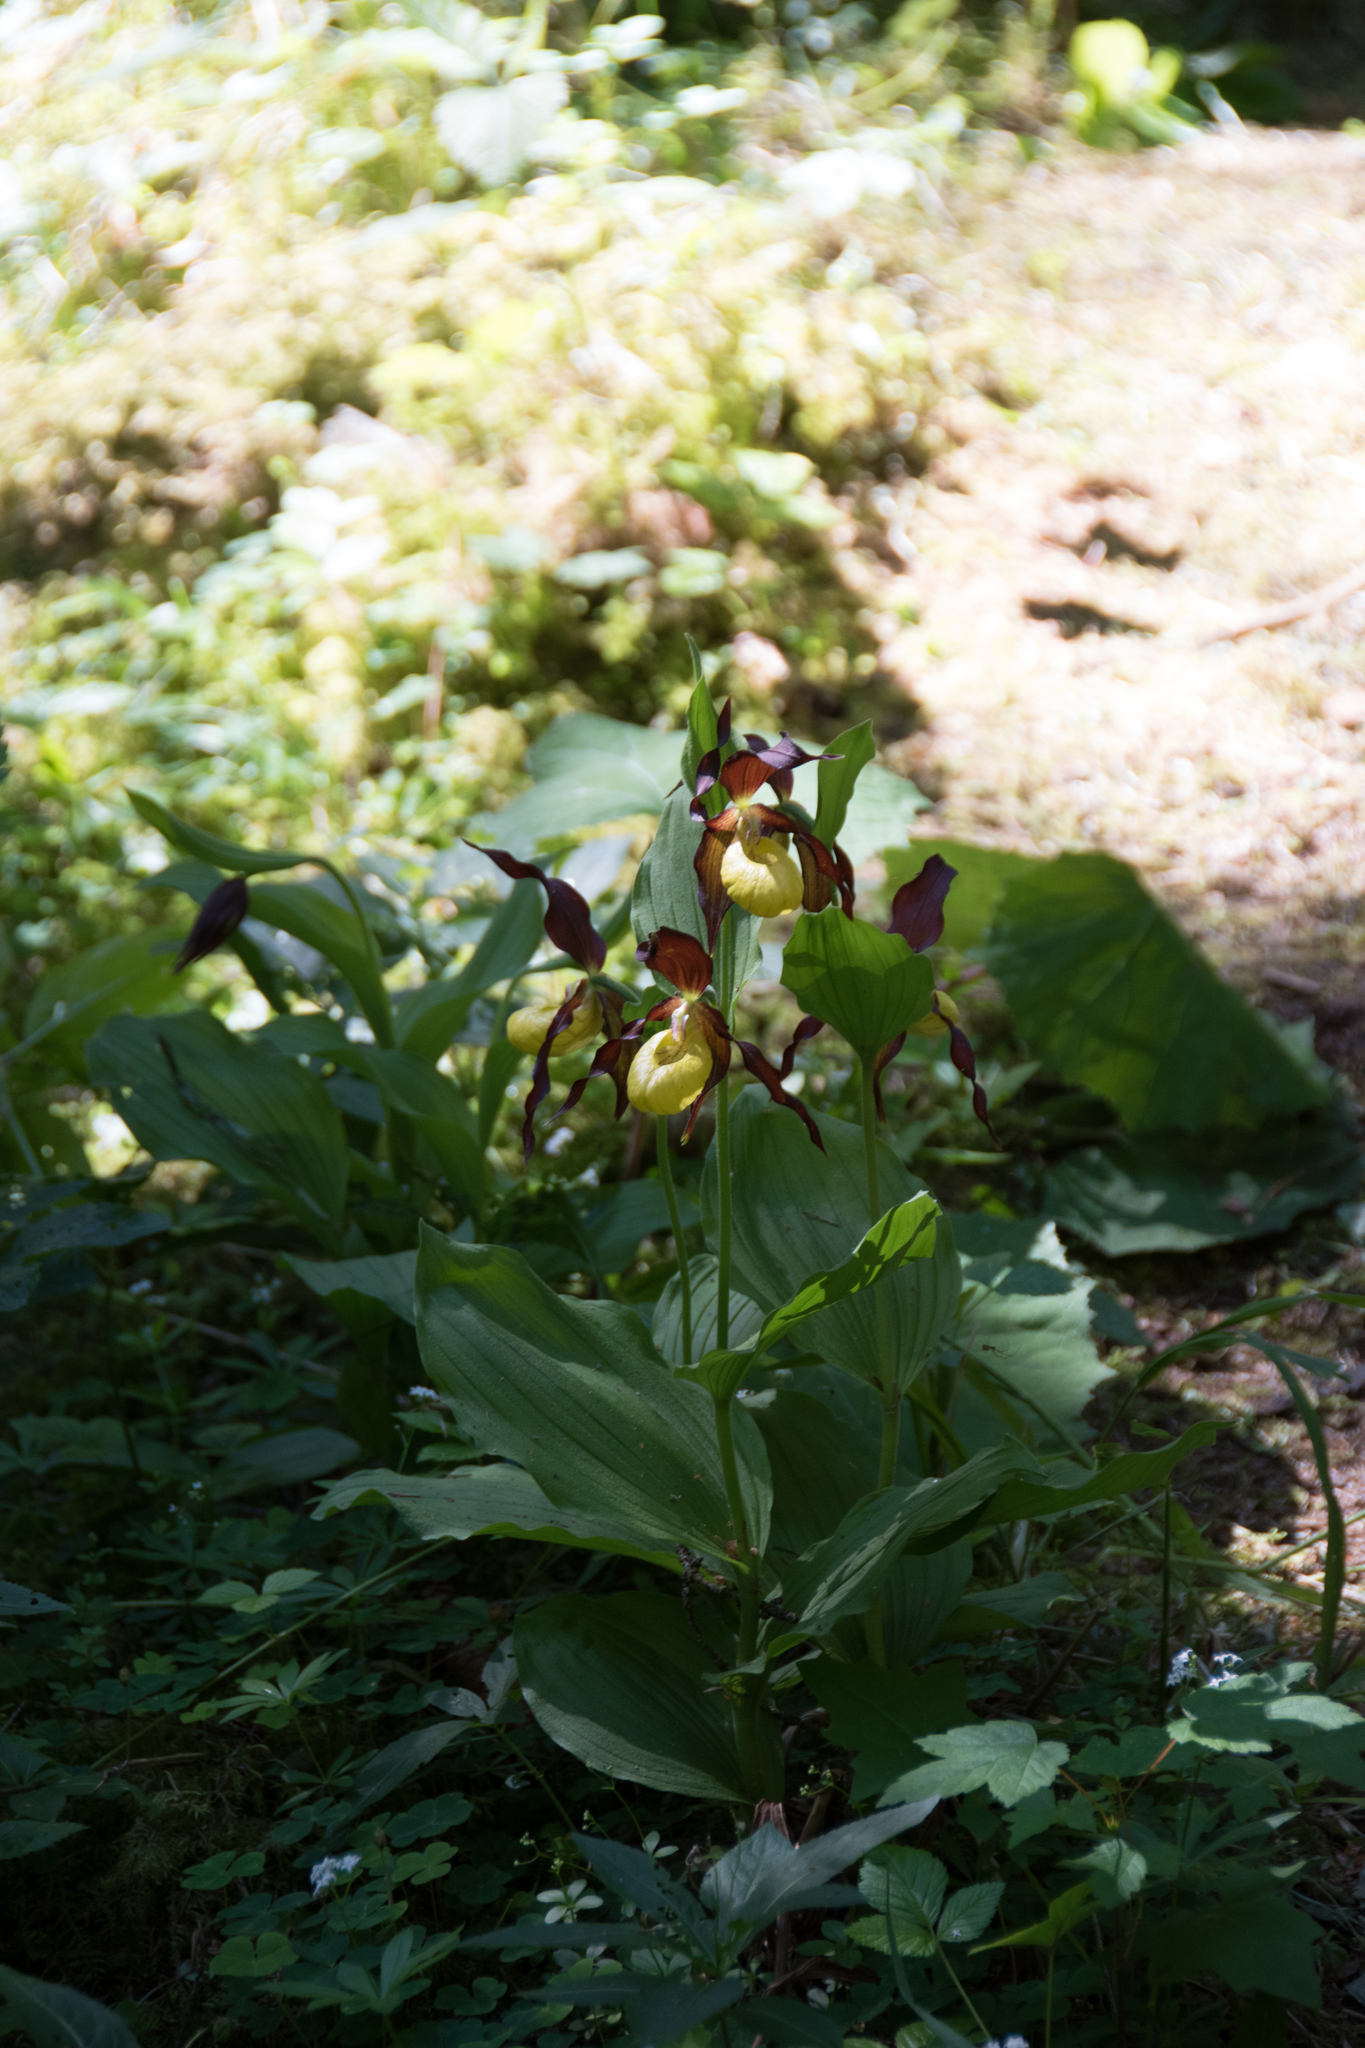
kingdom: Plantae
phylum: Tracheophyta
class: Liliopsida
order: Asparagales
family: Orchidaceae
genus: Cypripedium
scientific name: Cypripedium calceolus
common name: Lady's-slipper
